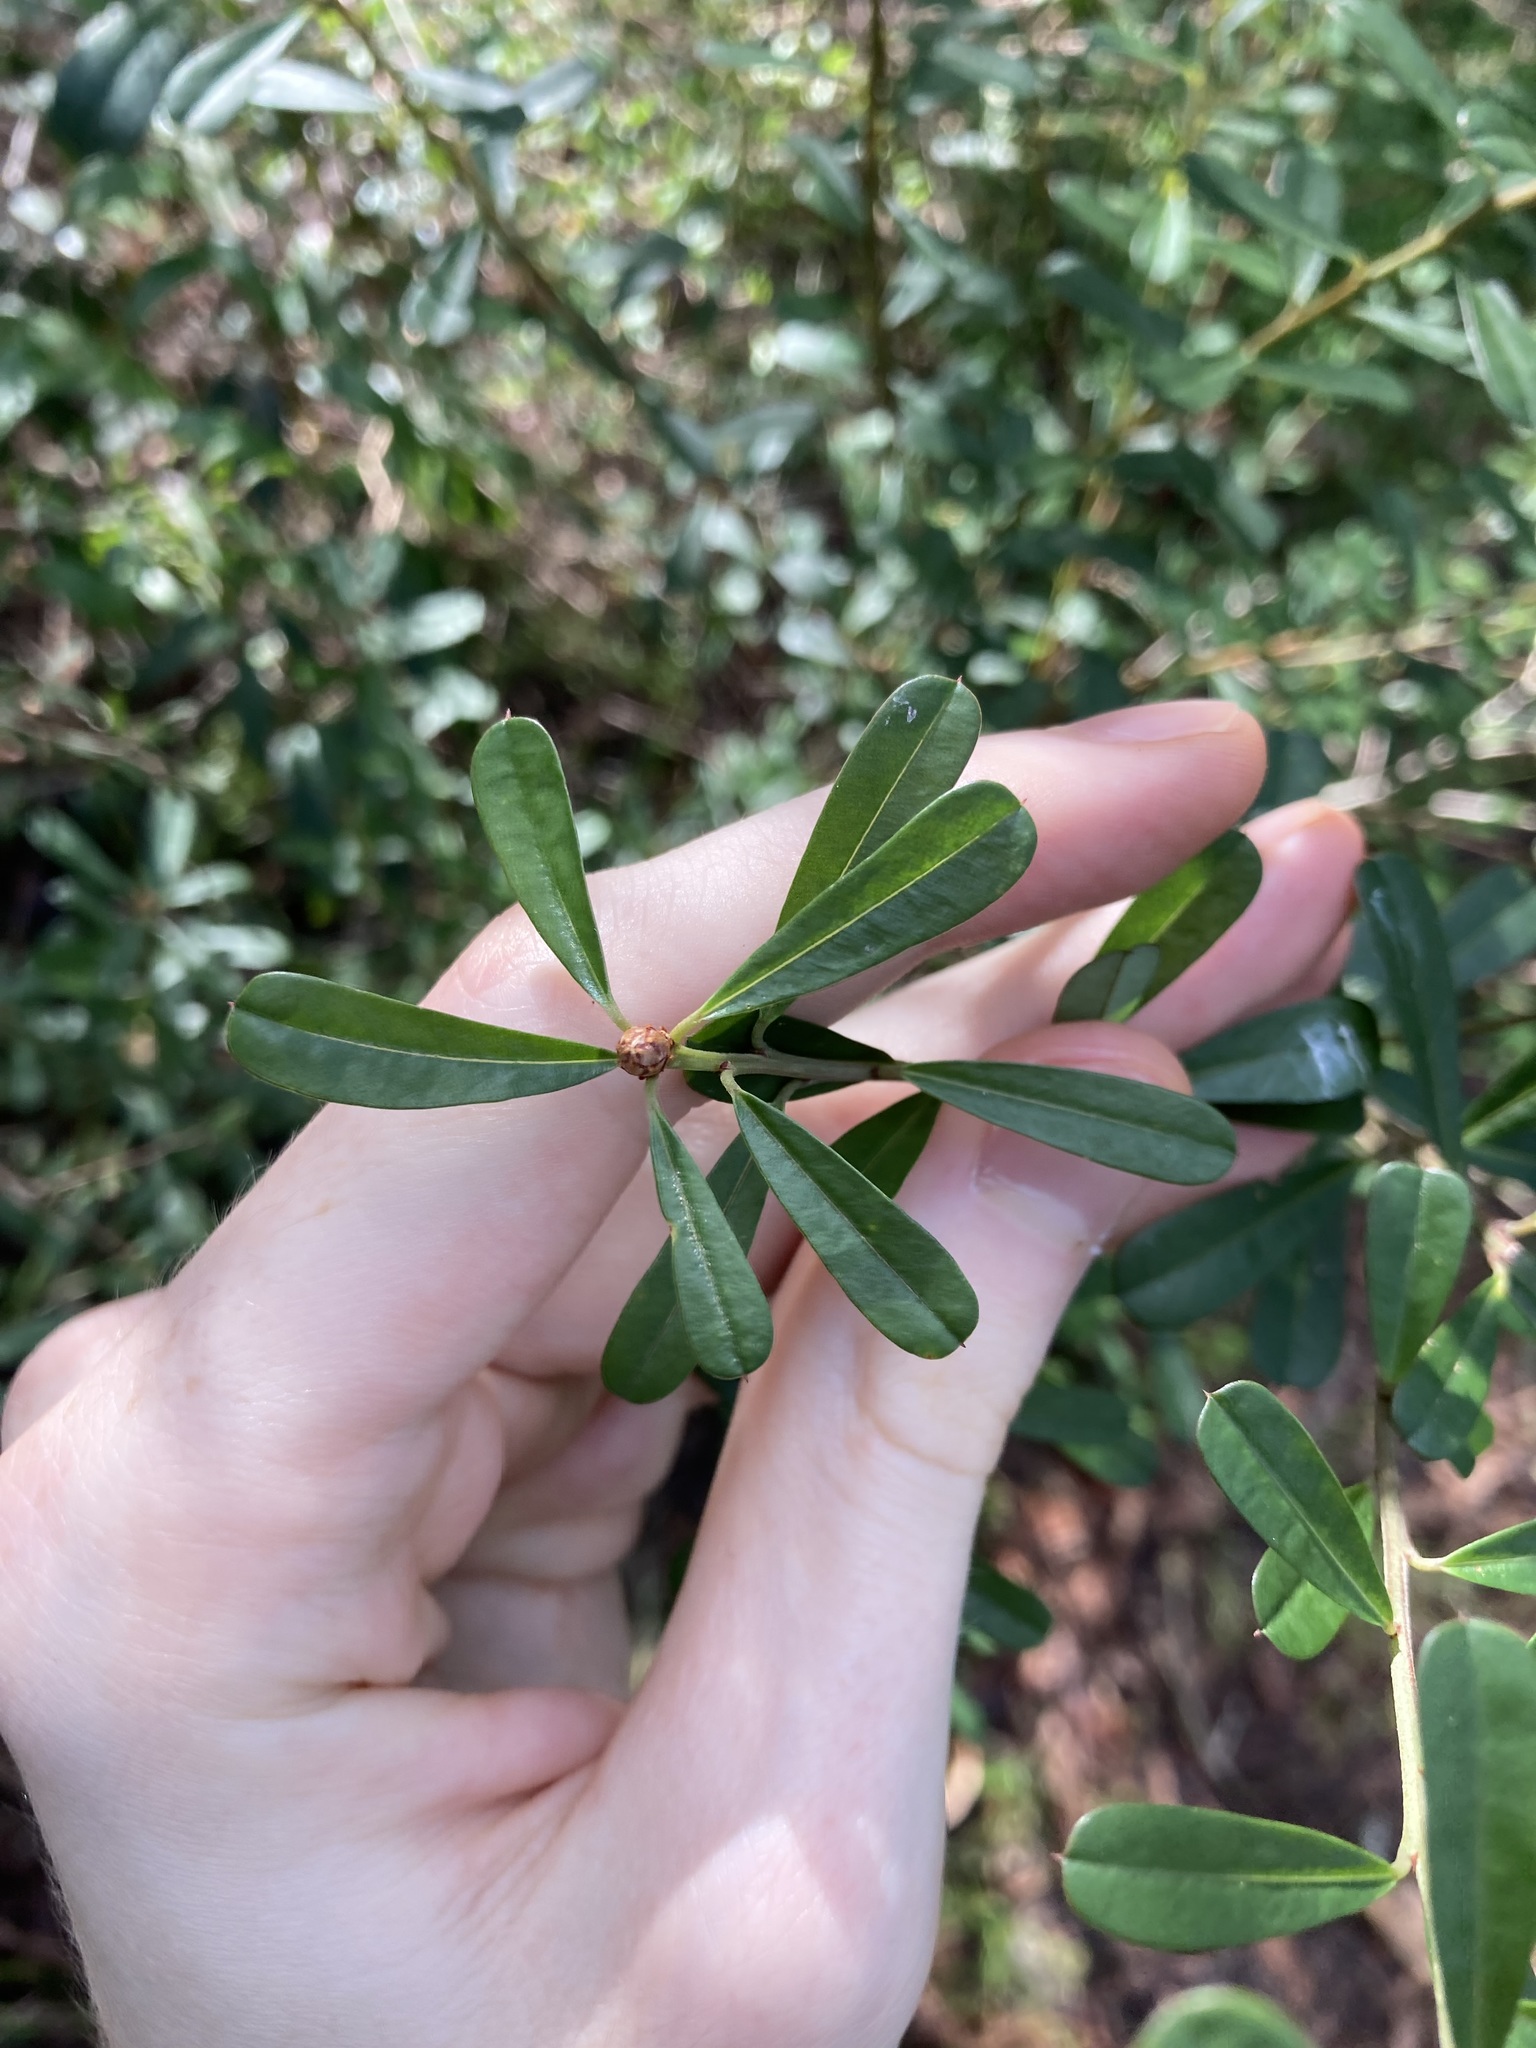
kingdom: Plantae
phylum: Tracheophyta
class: Magnoliopsida
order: Fabales
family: Fabaceae
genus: Pultenaea
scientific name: Pultenaea daphnoides
